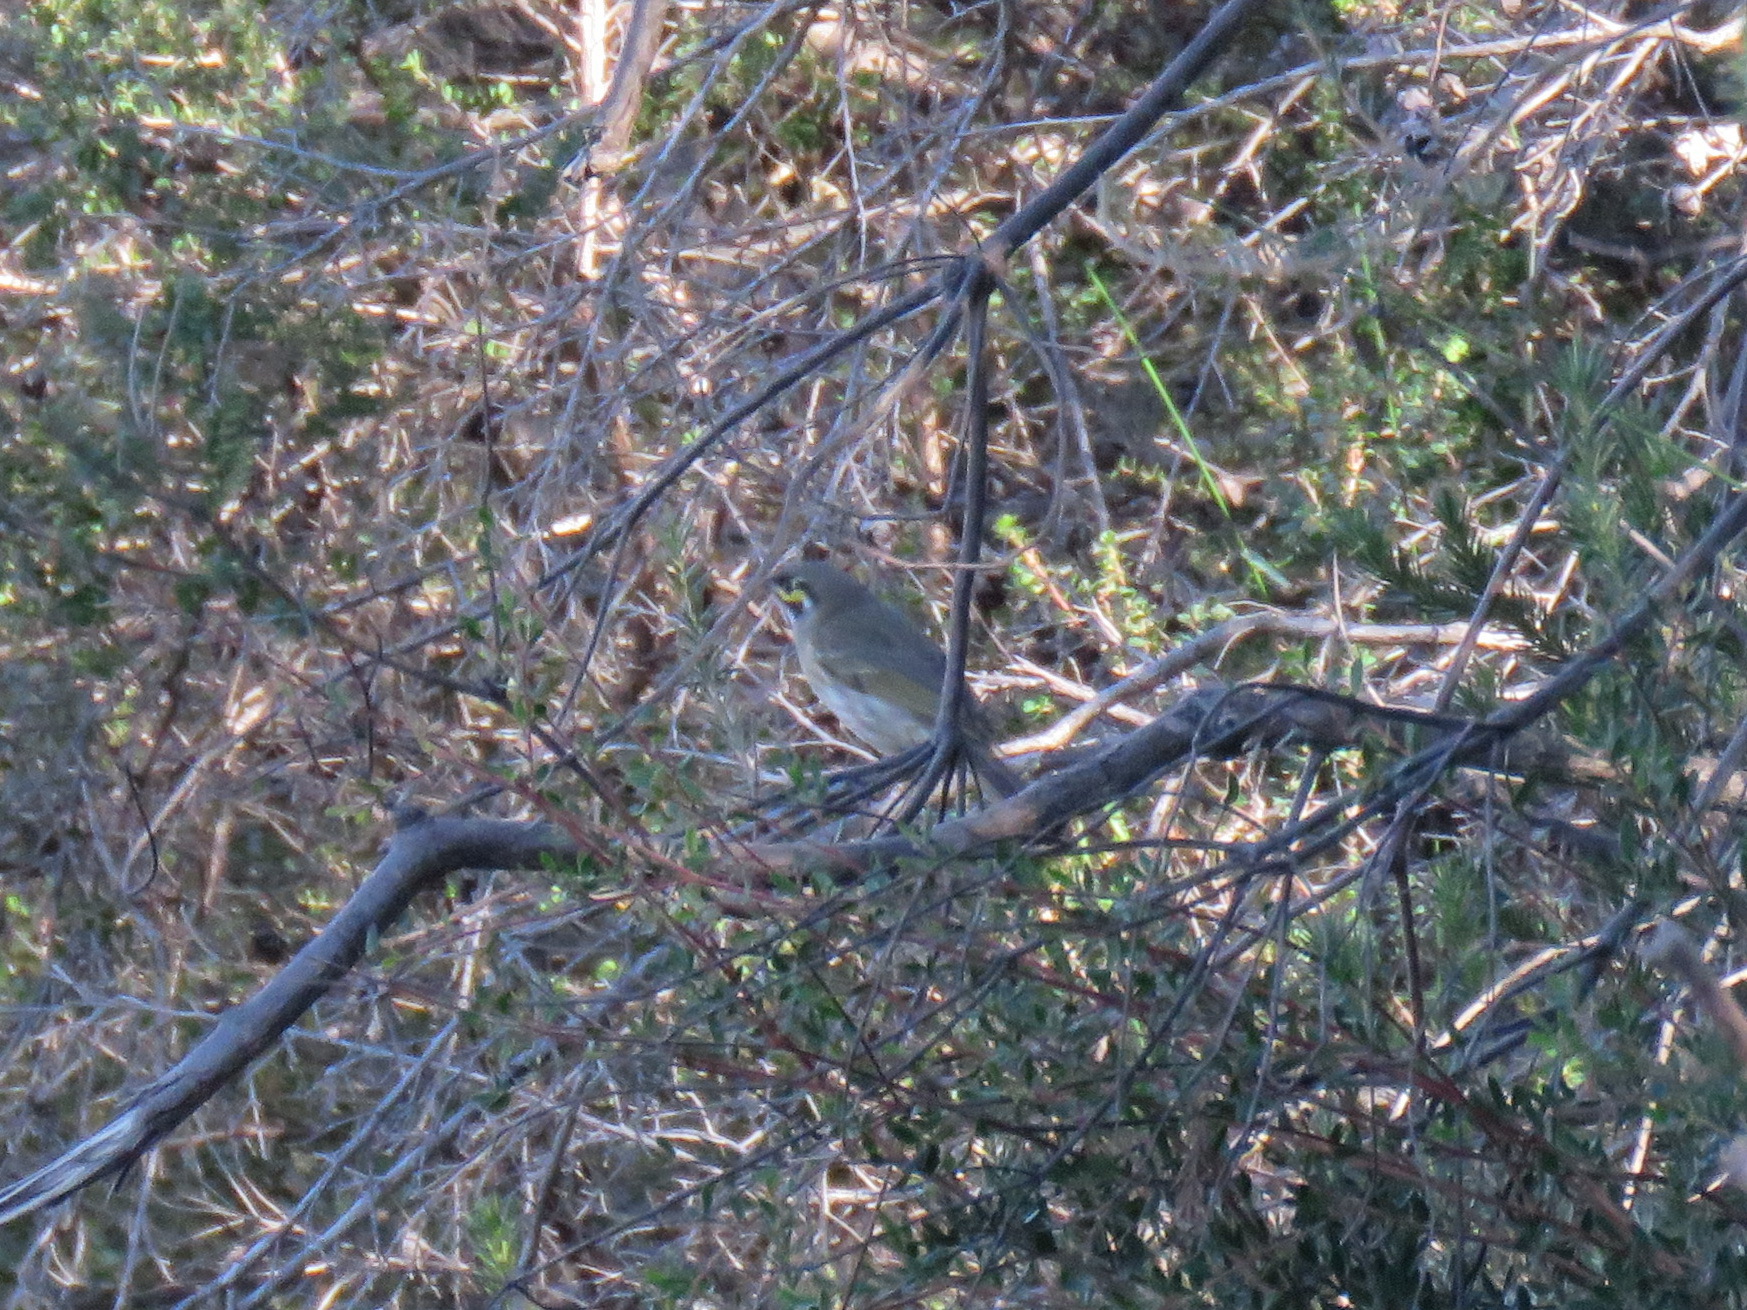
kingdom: Animalia
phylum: Chordata
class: Aves
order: Passeriformes
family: Meliphagidae
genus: Caligavis
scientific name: Caligavis chrysops
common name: Yellow-faced honeyeater
